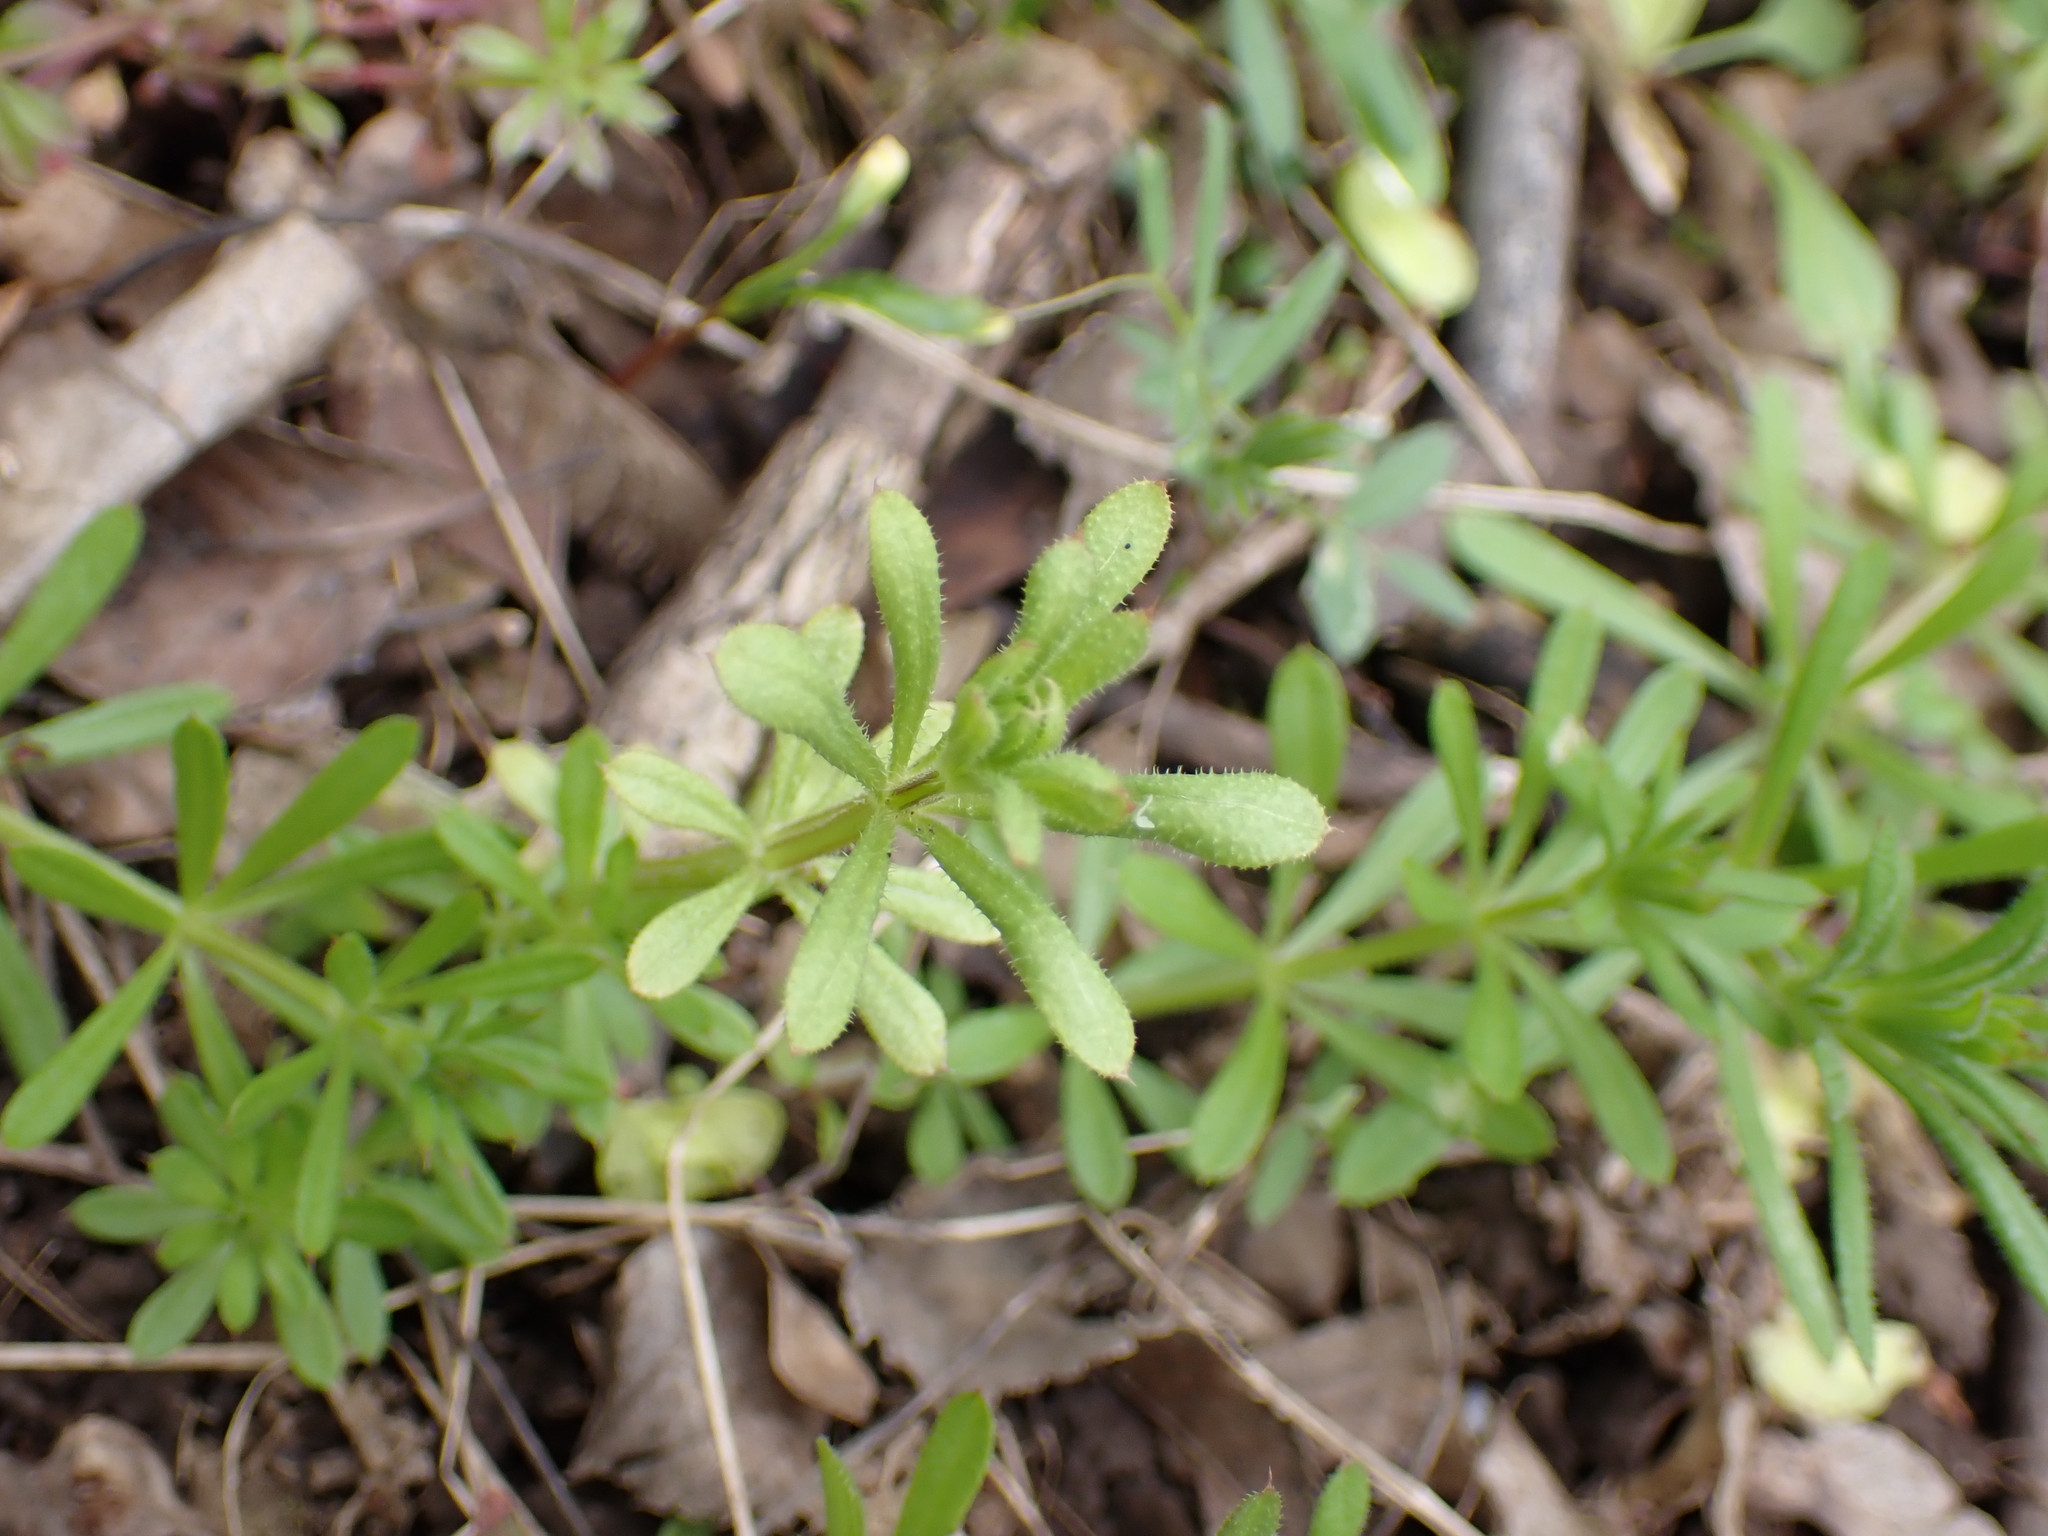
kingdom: Chromista
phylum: Oomycota
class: Peronosporea
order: Peronosporales
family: Peronosporaceae
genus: Peronospora
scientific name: Peronospora aparines
